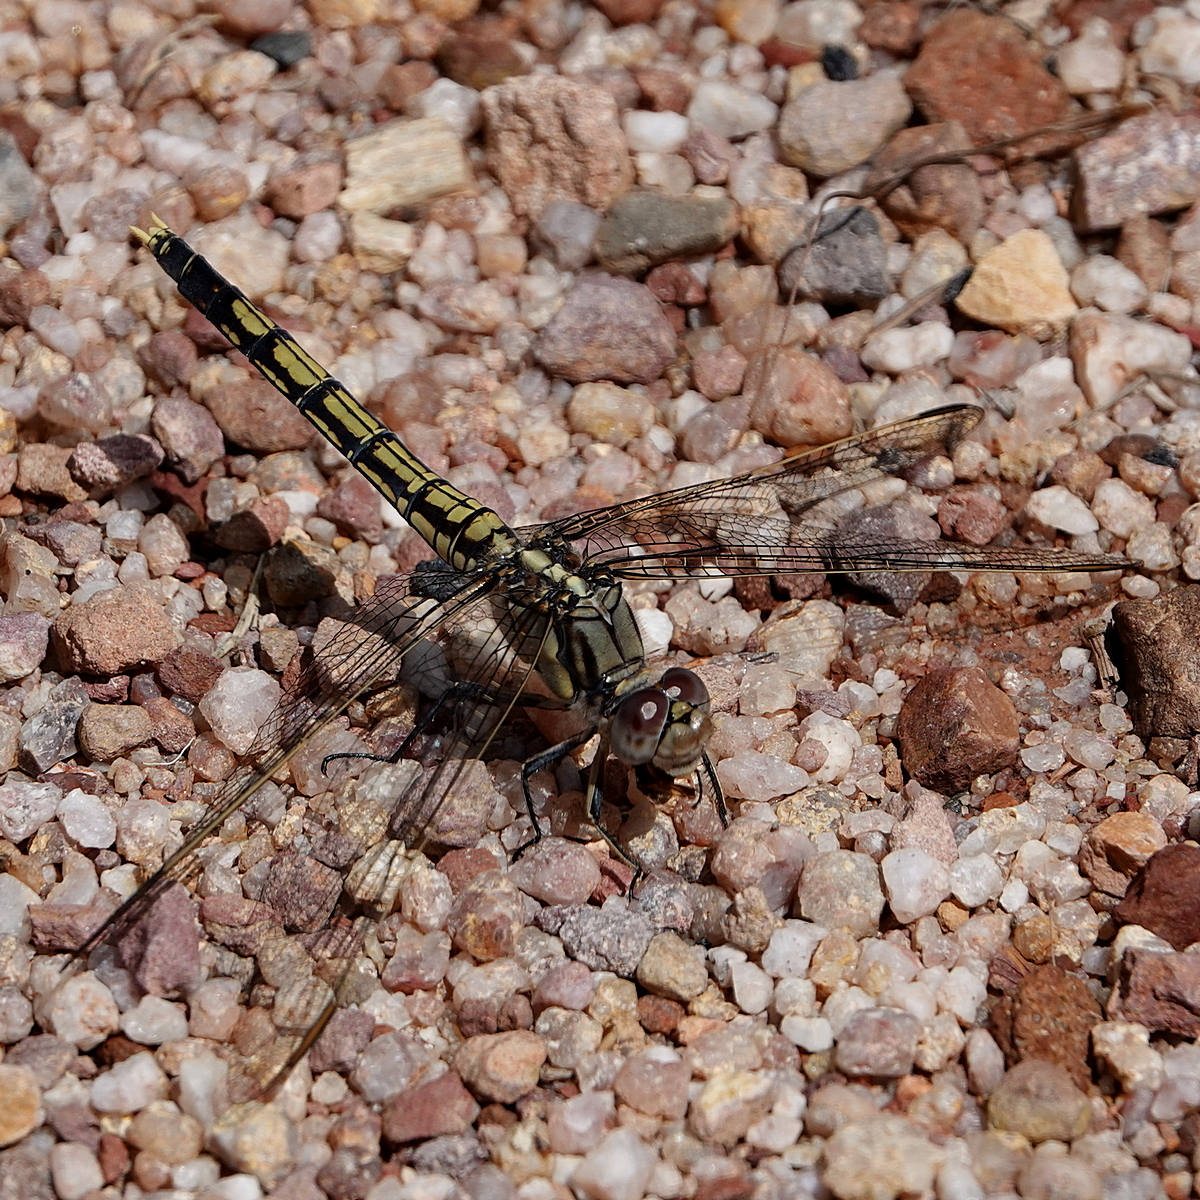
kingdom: Animalia
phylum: Arthropoda
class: Insecta
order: Odonata
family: Libellulidae
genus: Orthetrum
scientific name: Orthetrum caledonicum
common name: Blue skimmer
